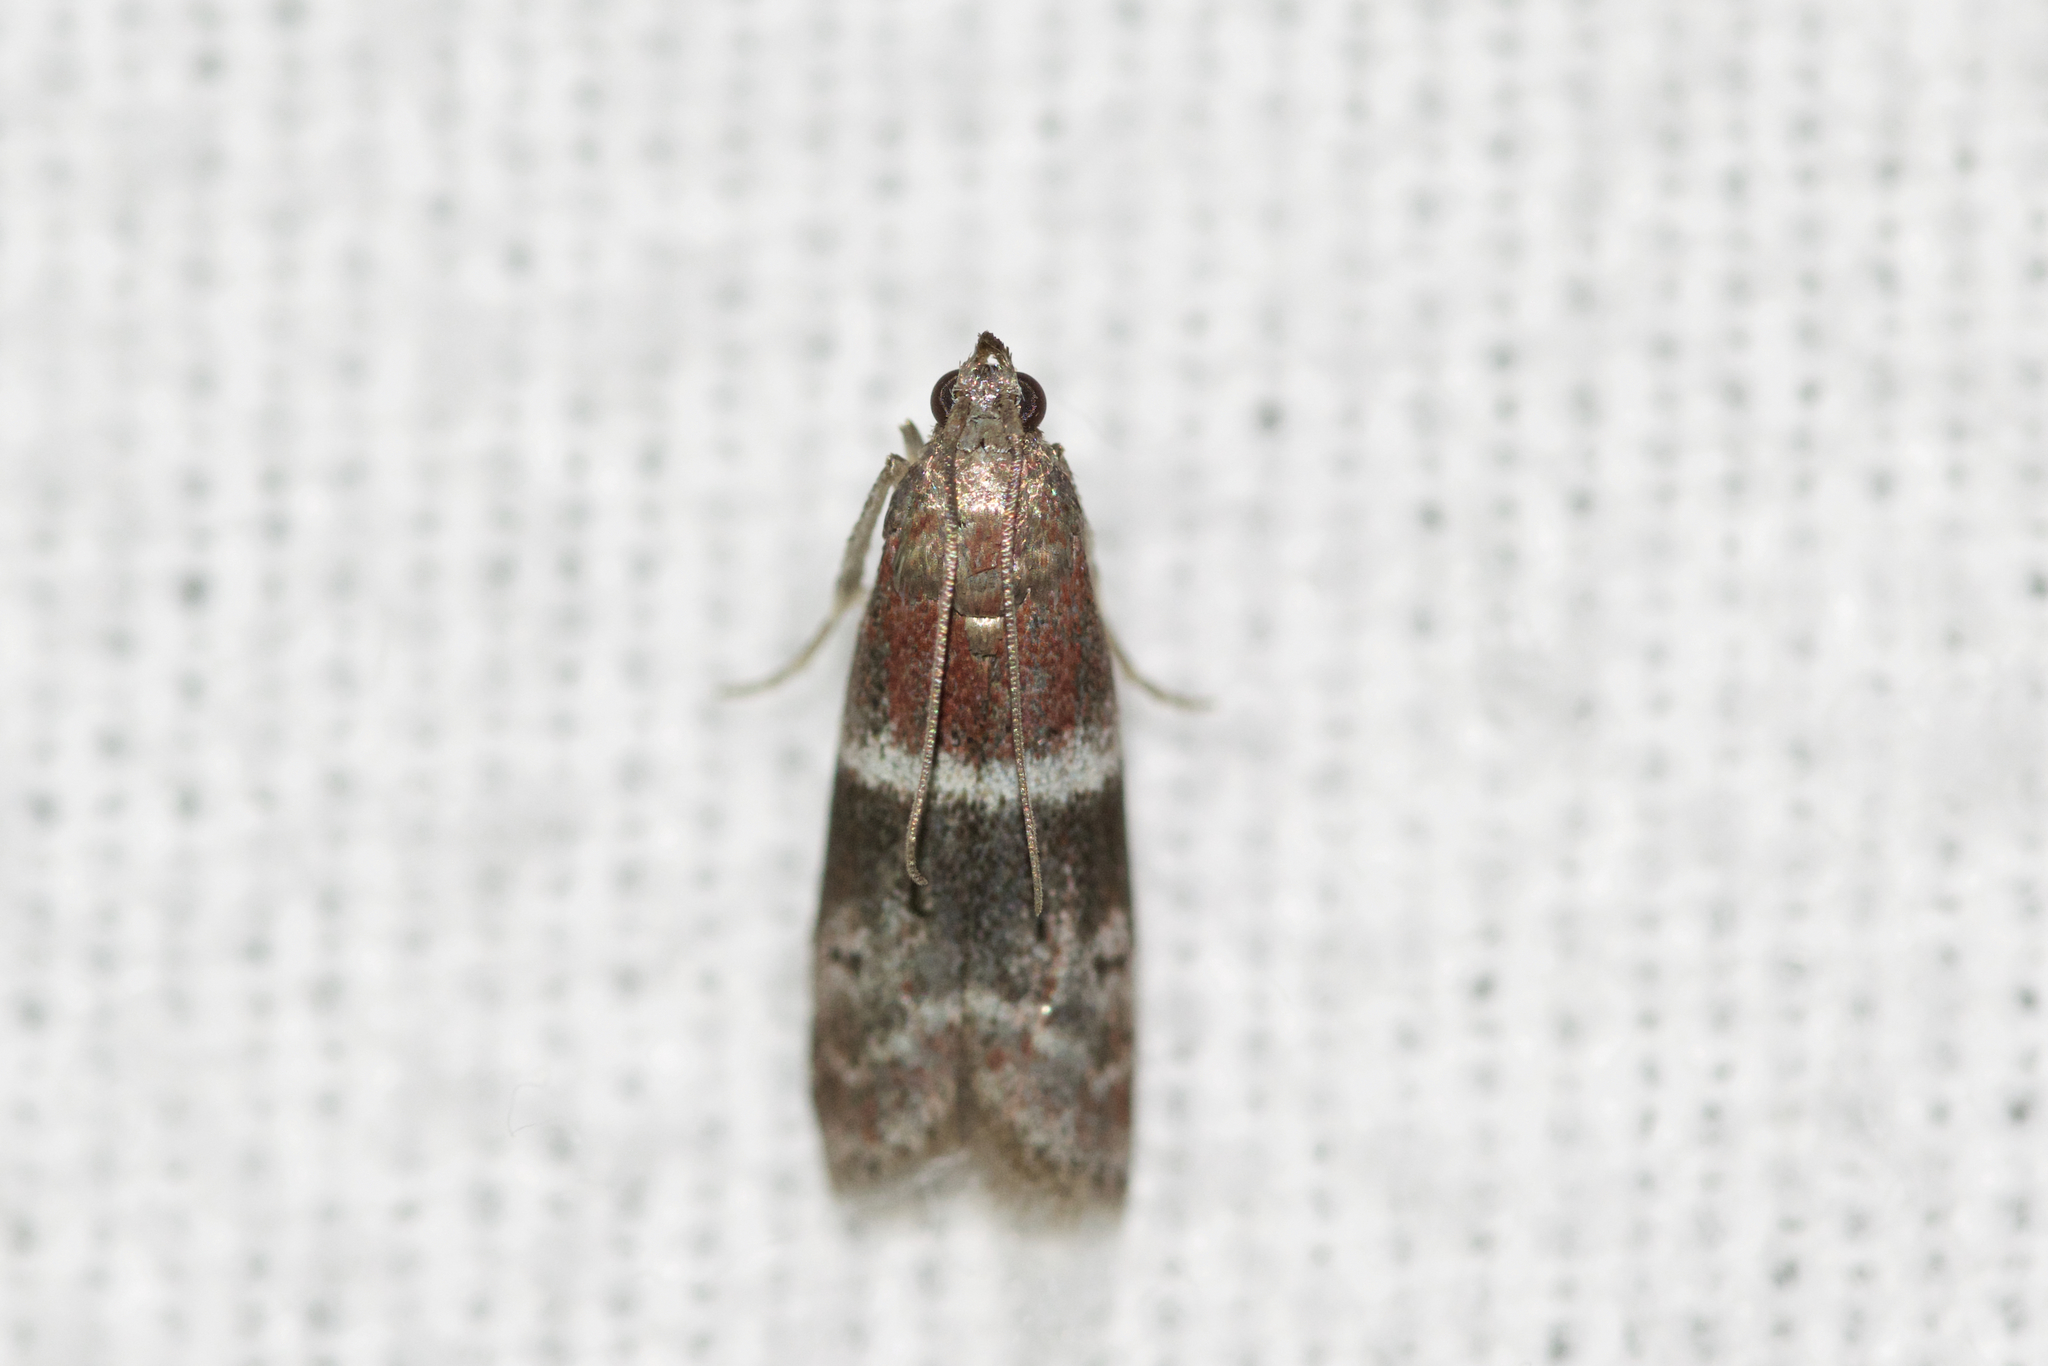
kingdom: Animalia
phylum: Arthropoda
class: Insecta
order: Lepidoptera
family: Pyralidae
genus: Moodna
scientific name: Moodna ostrinella
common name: Darker moodna moth
